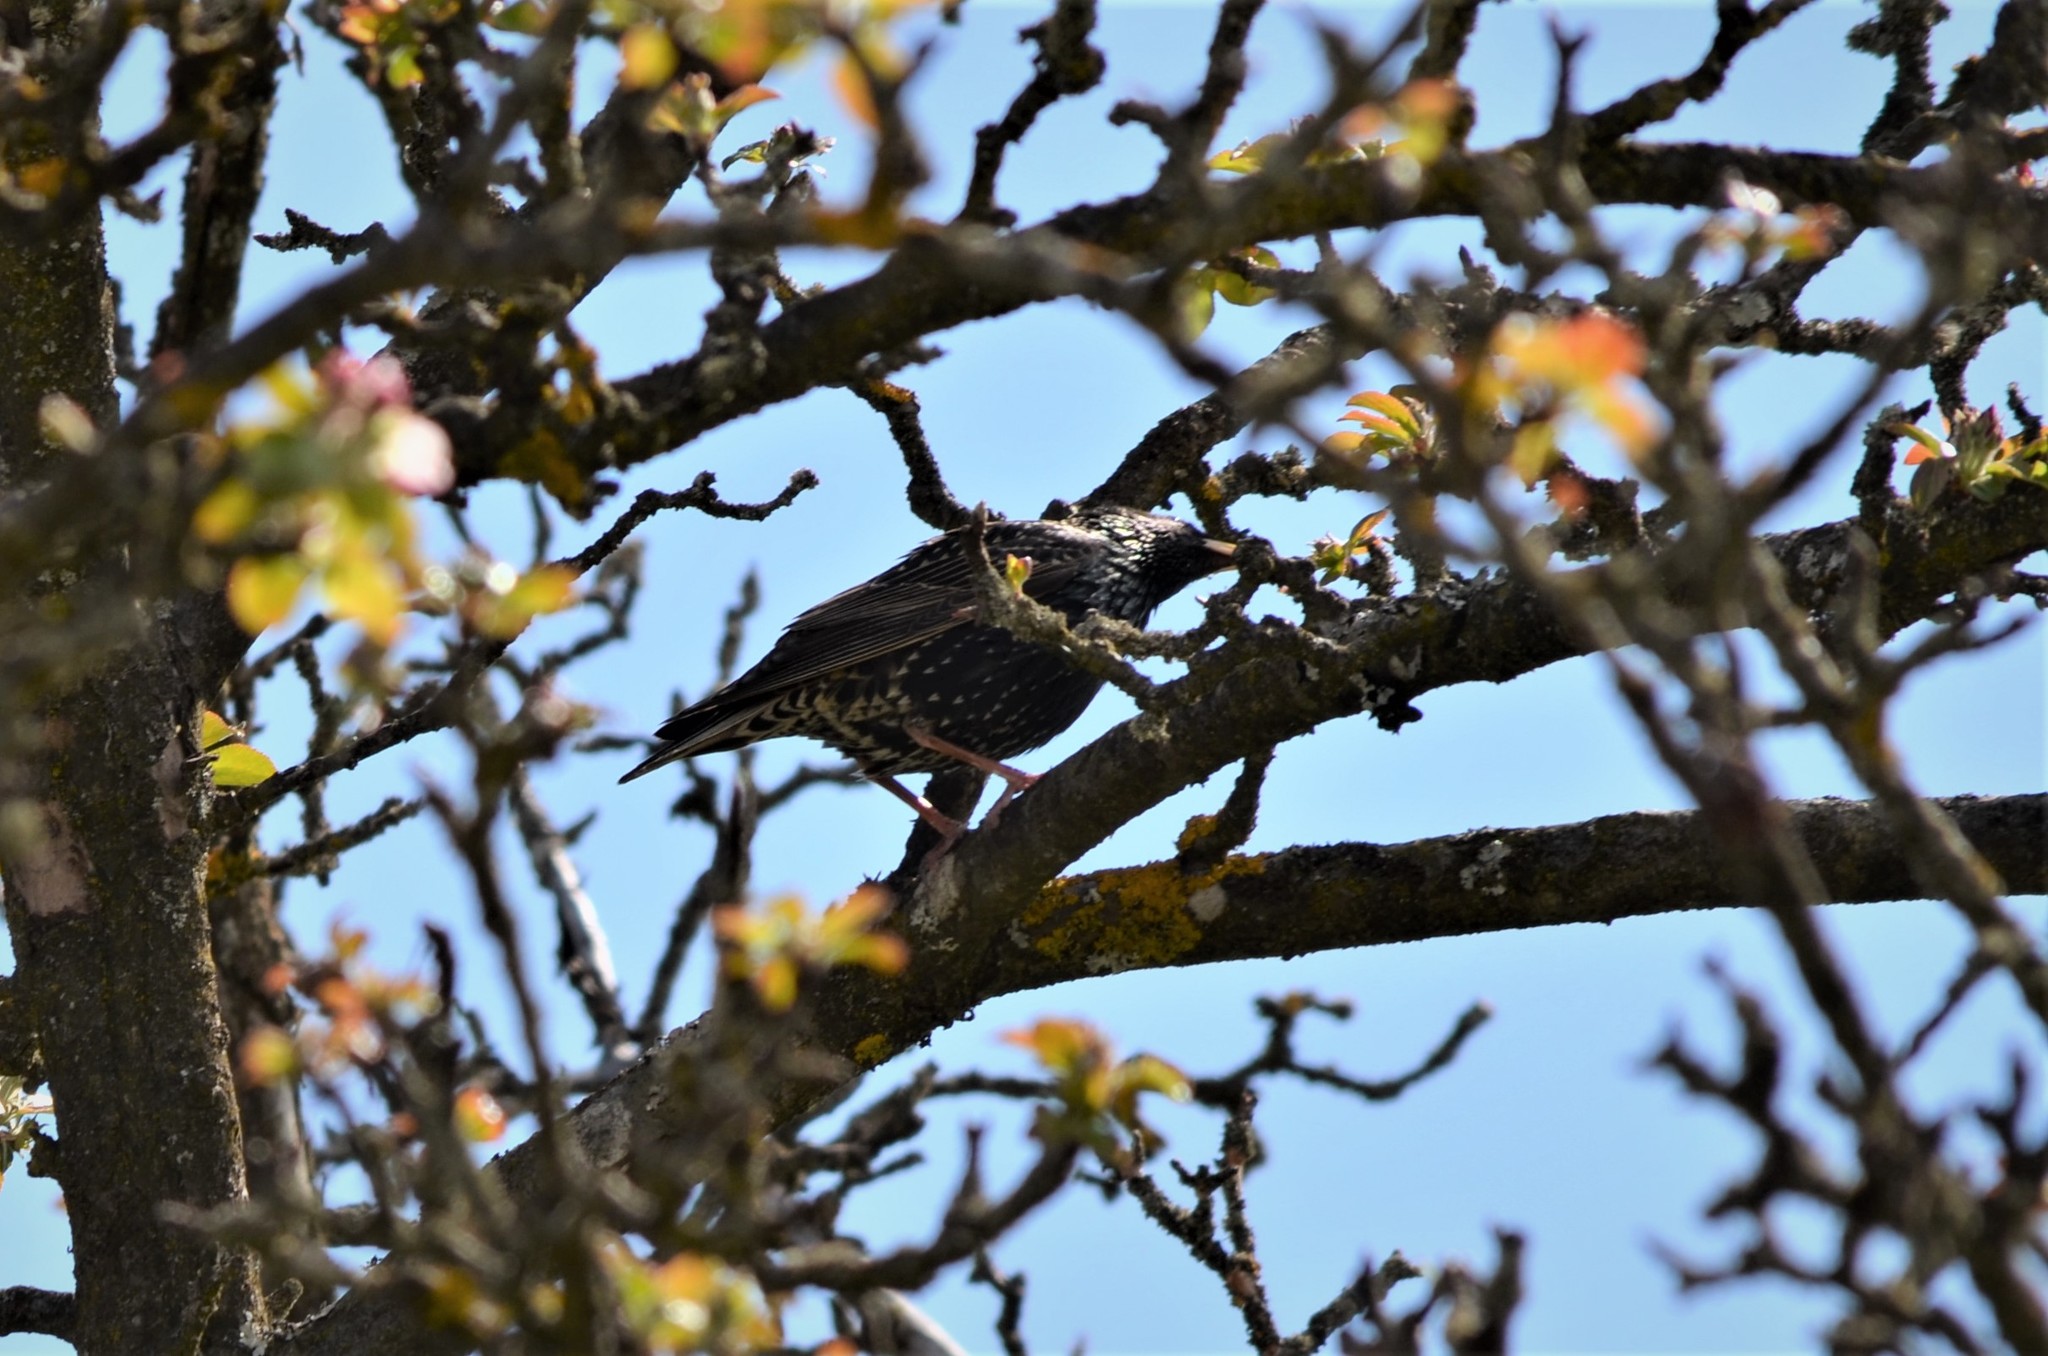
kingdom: Animalia
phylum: Chordata
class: Aves
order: Passeriformes
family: Sturnidae
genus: Sturnus
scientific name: Sturnus vulgaris
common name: Common starling
